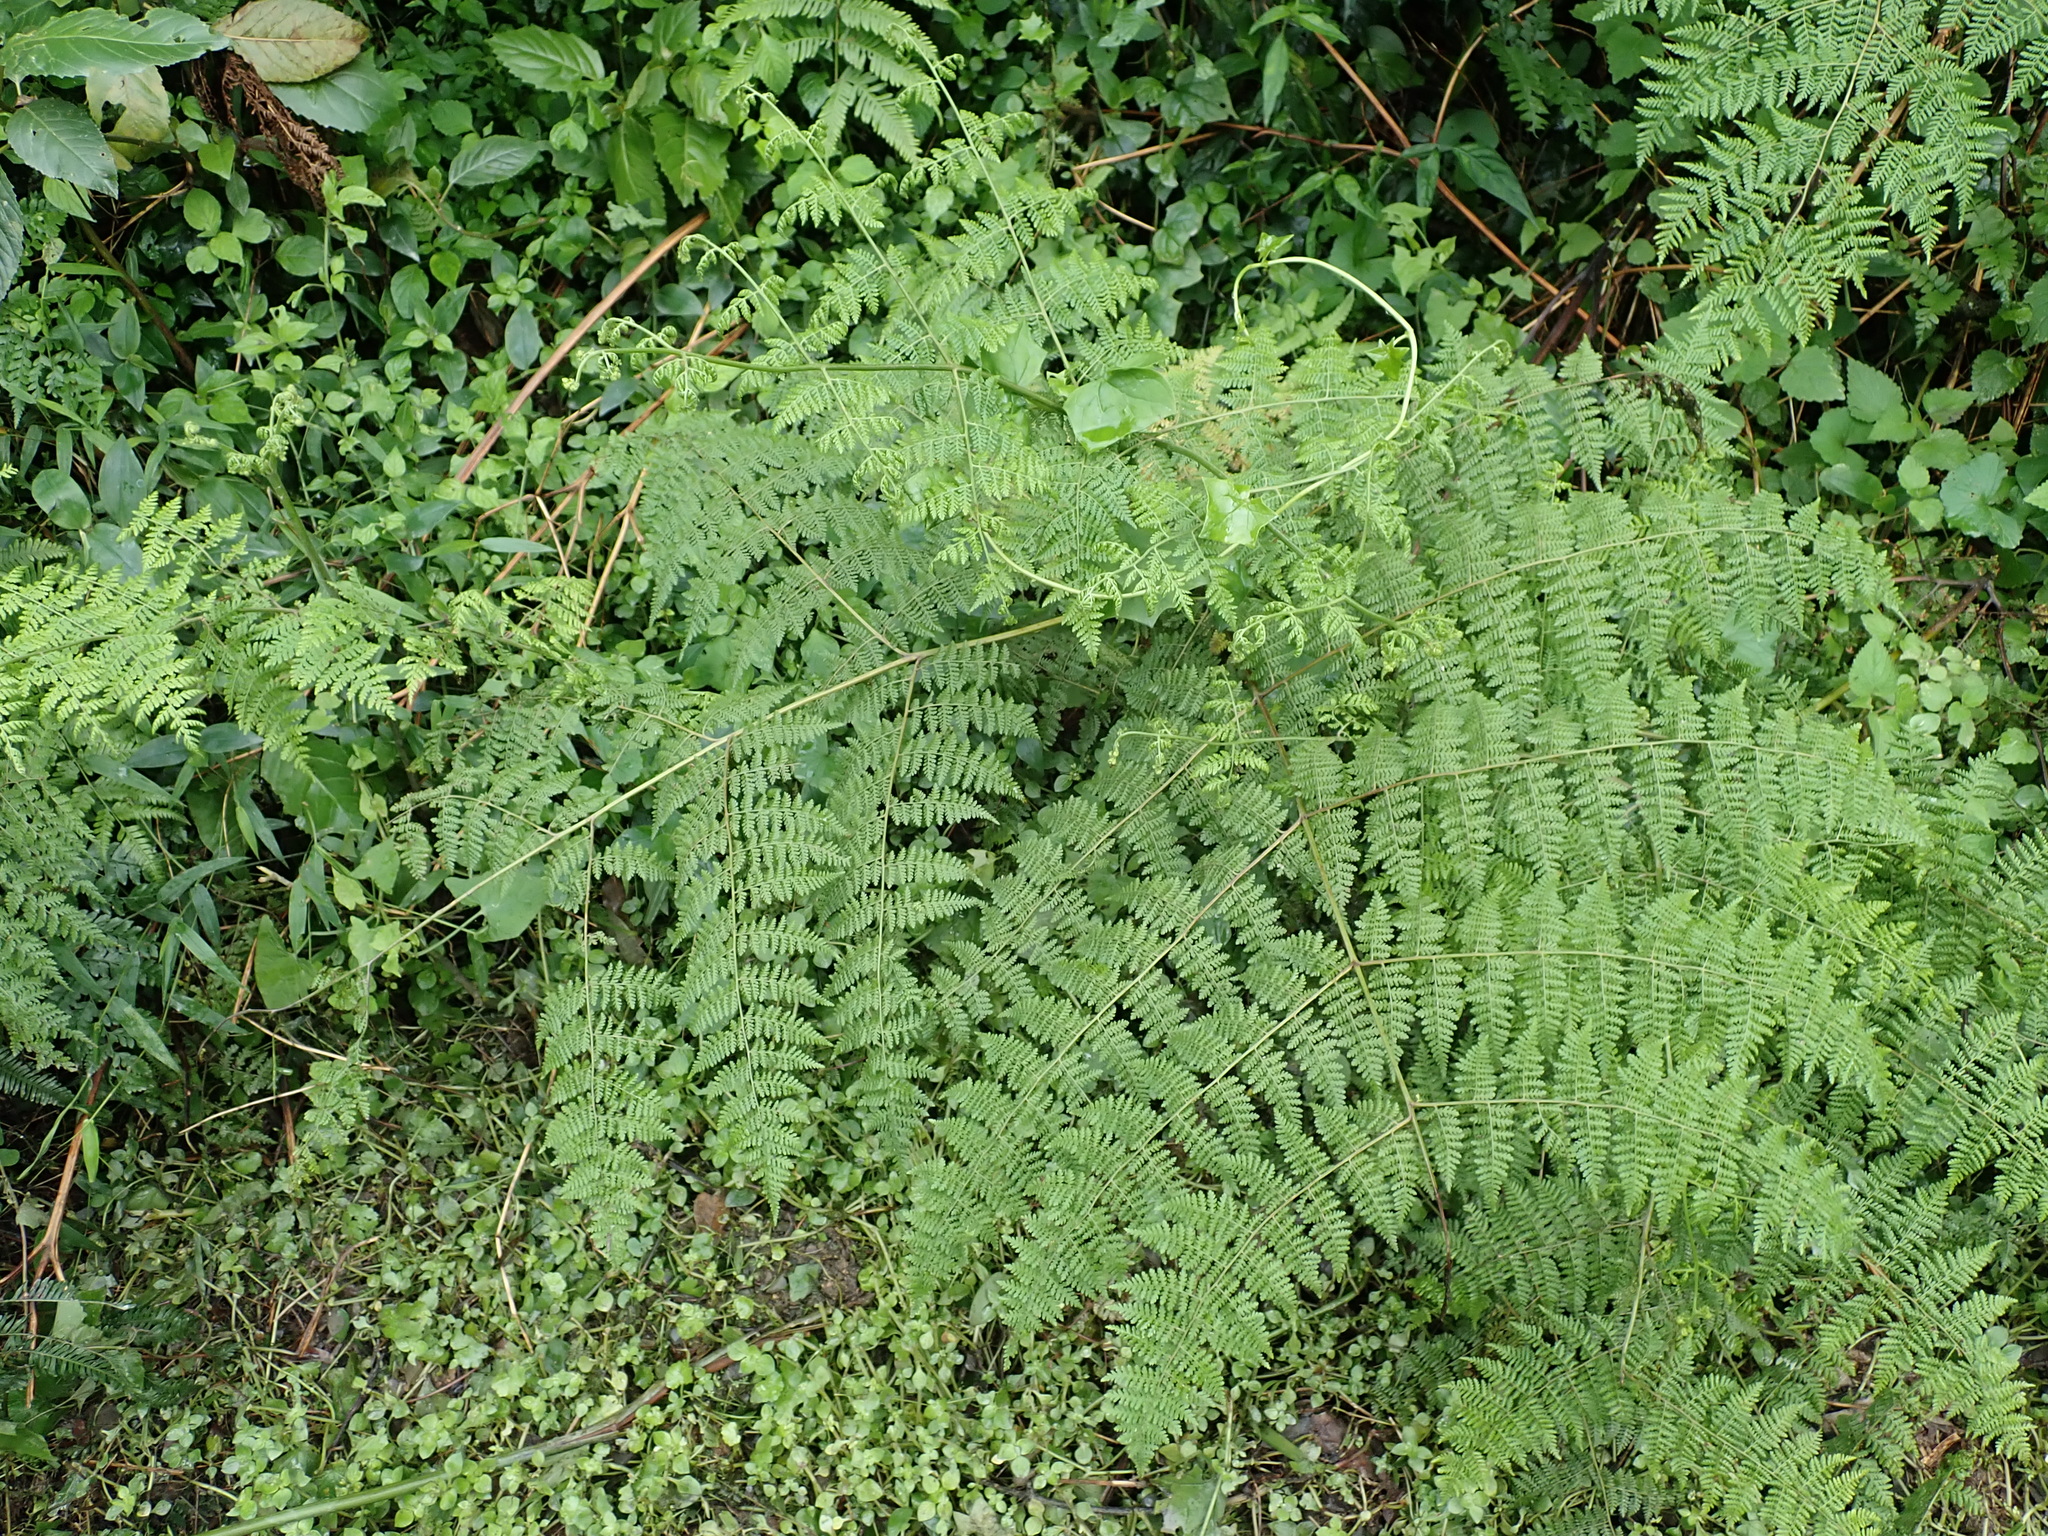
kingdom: Plantae
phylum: Tracheophyta
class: Polypodiopsida
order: Polypodiales
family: Dennstaedtiaceae
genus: Hypolepis
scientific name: Hypolepis sparsisora
